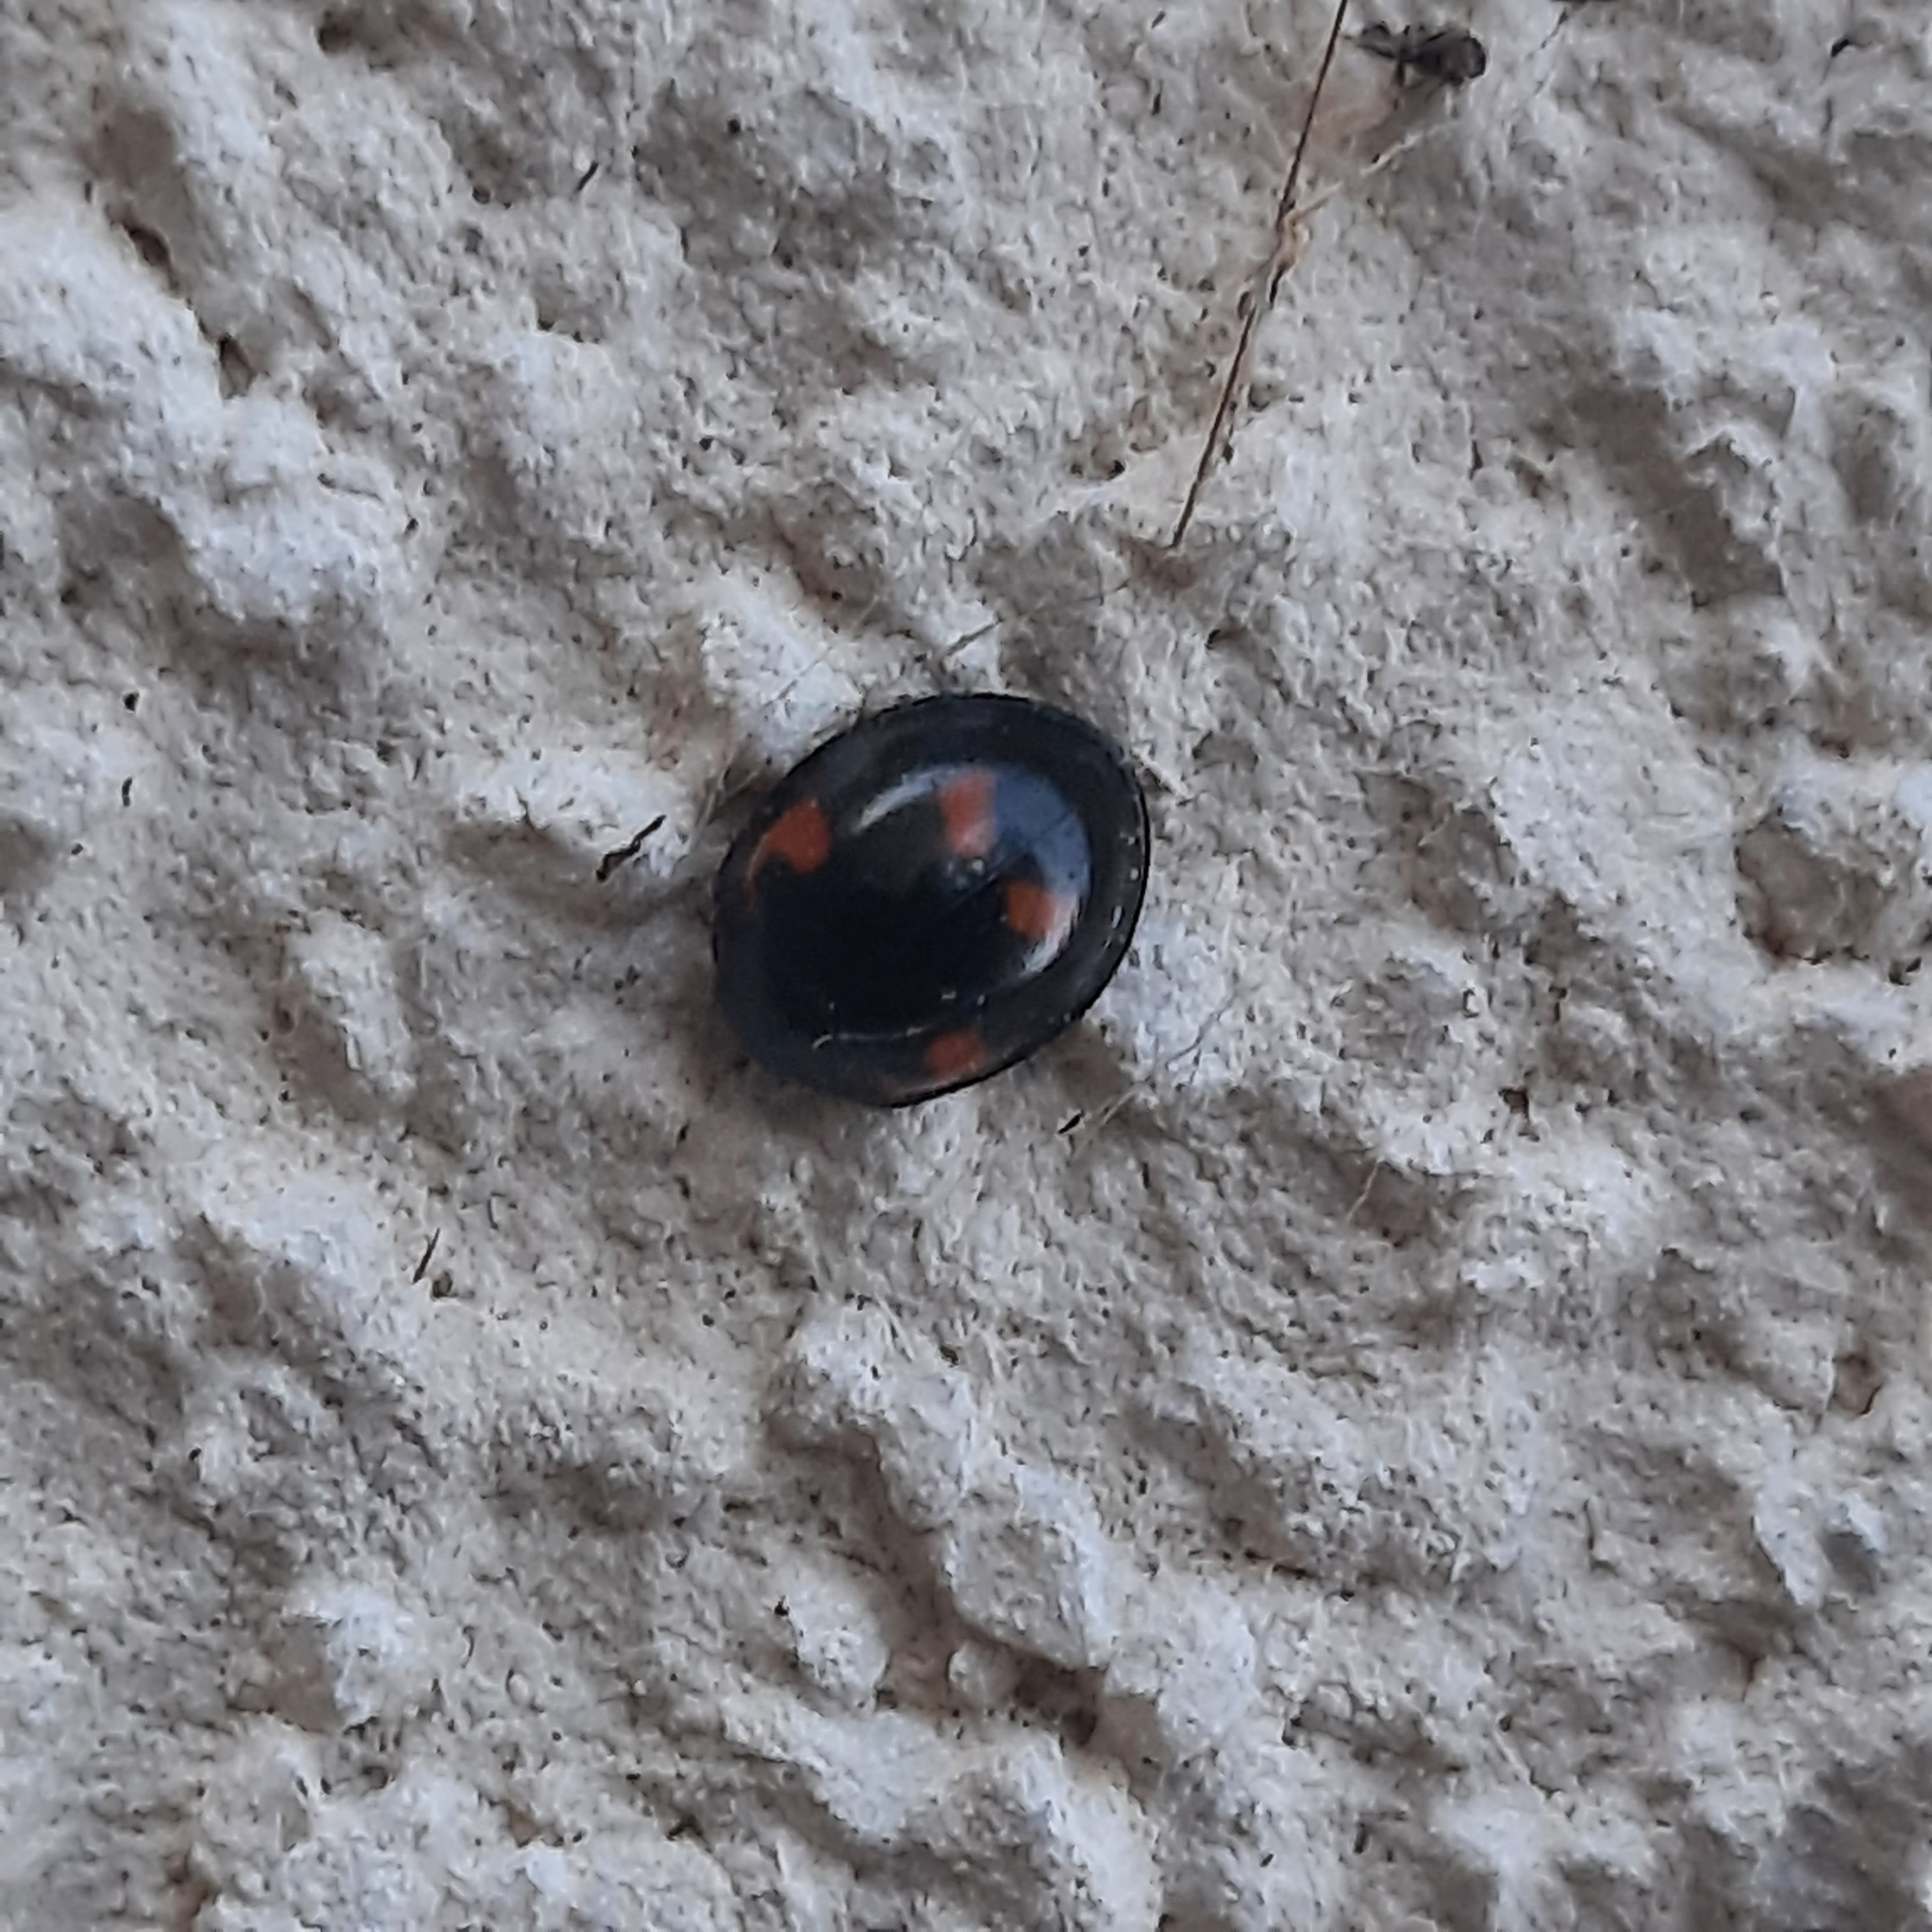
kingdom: Animalia
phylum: Arthropoda
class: Insecta
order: Coleoptera
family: Coccinellidae
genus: Brumus
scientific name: Brumus quadripustulatus
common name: Ladybird beetle
